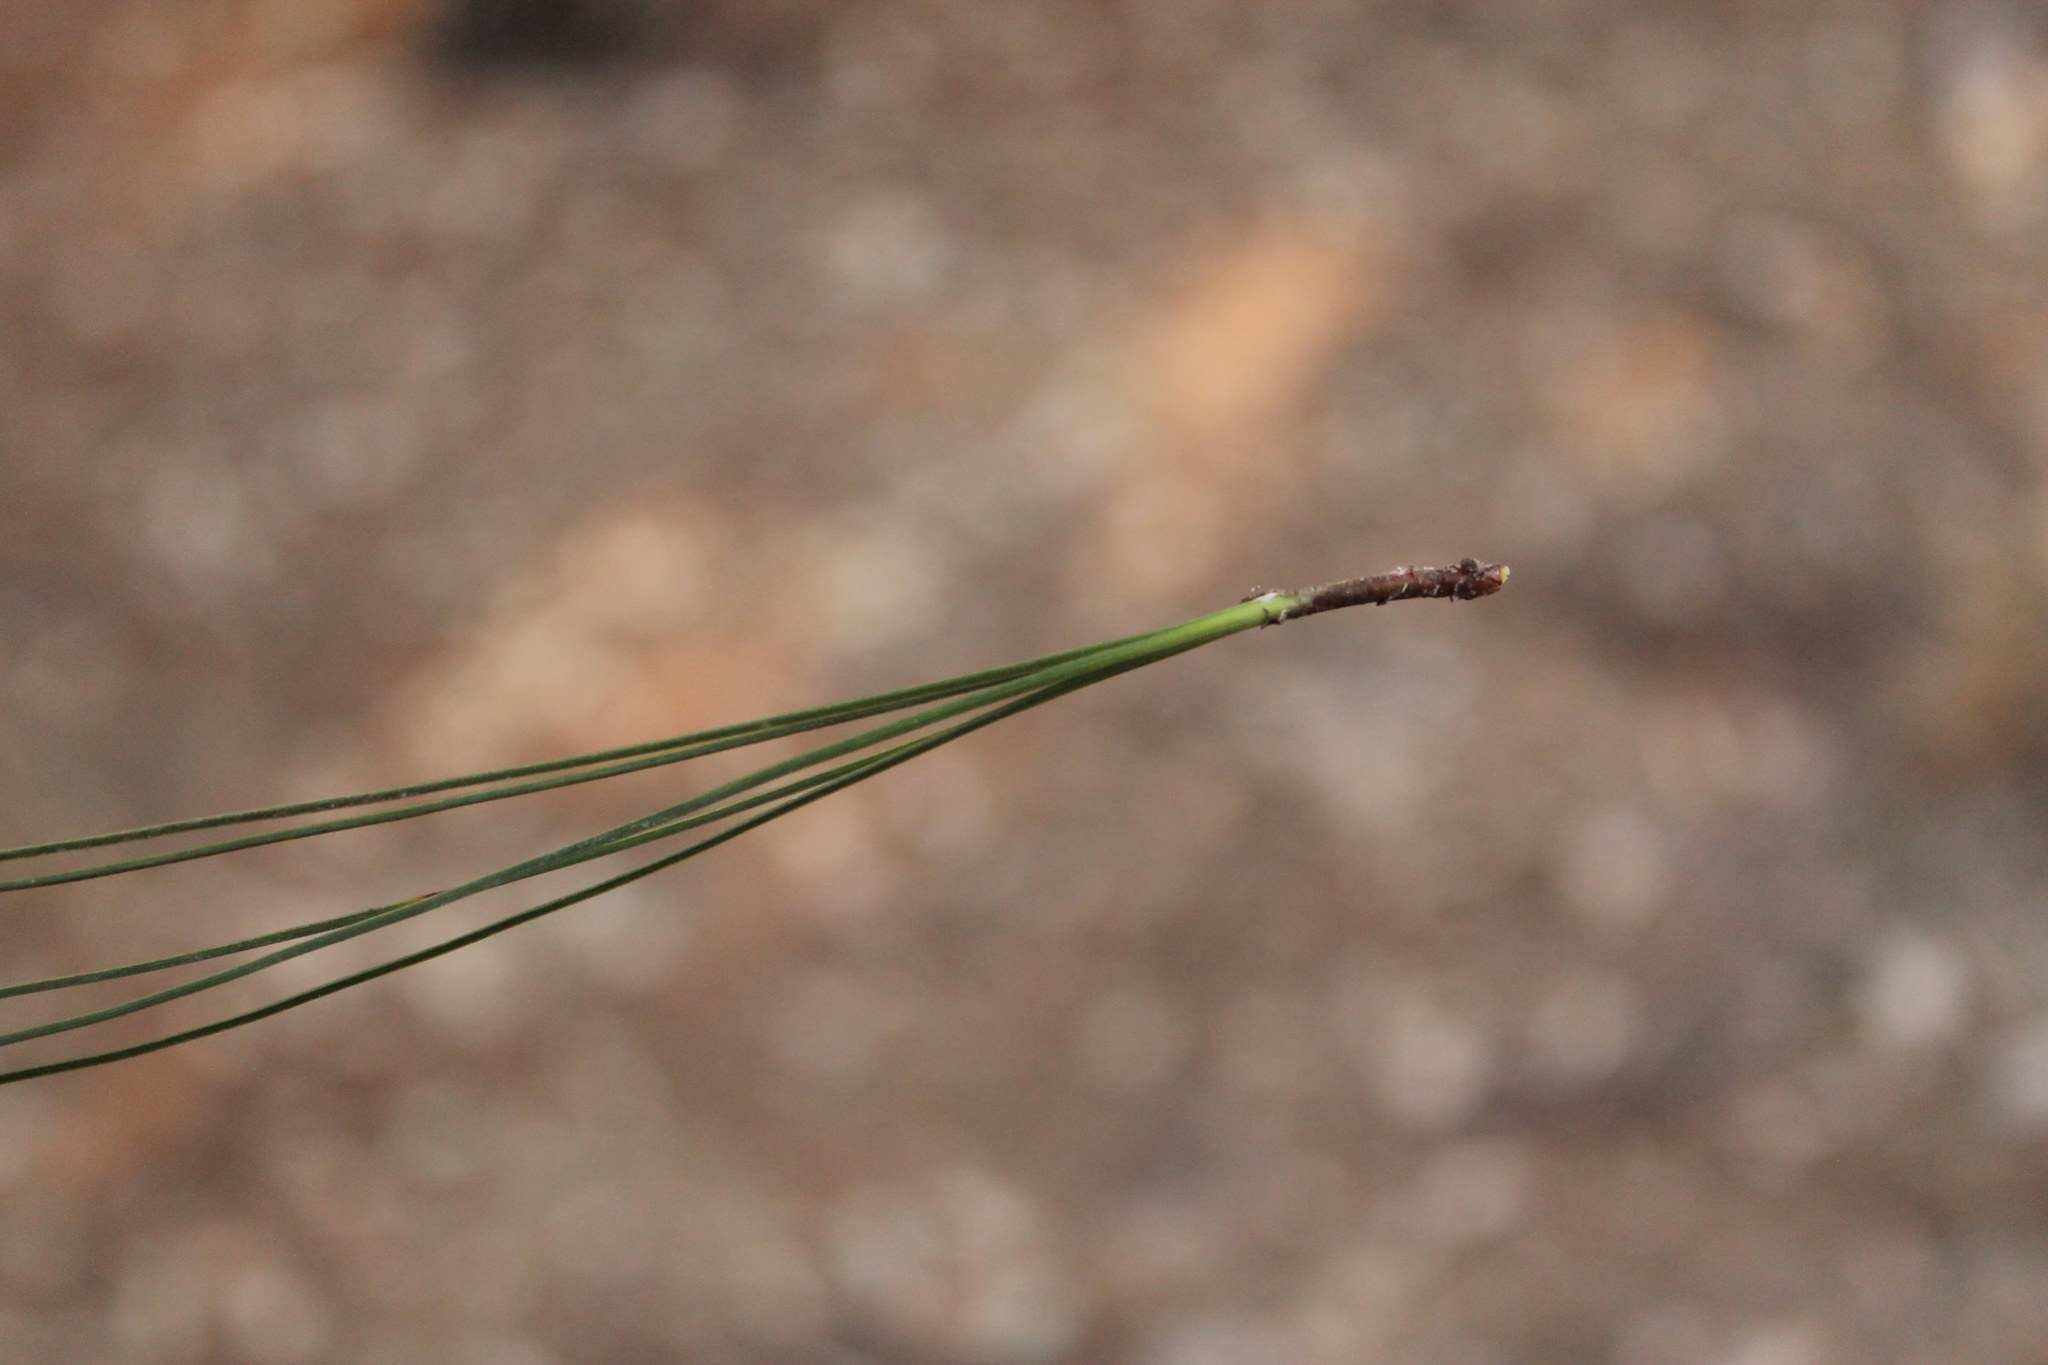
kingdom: Plantae
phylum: Tracheophyta
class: Pinopsida
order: Pinales
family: Pinaceae
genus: Pinus
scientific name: Pinus oocarpa
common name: Egg-cone pine
